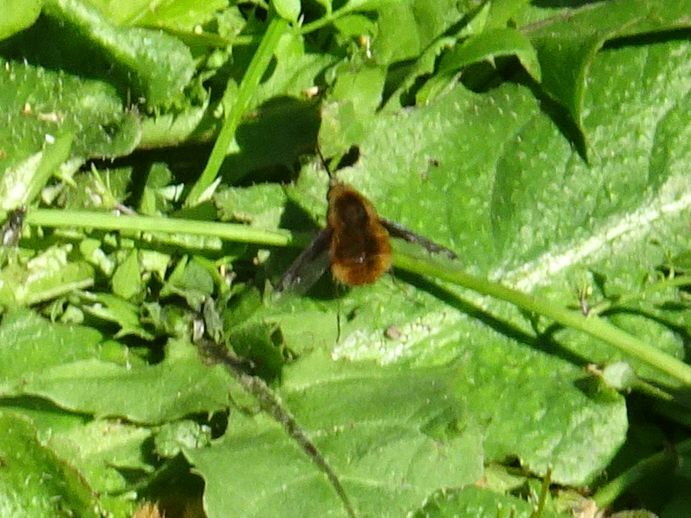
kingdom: Animalia
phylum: Arthropoda
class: Insecta
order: Diptera
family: Bombyliidae
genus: Bombylius
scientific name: Bombylius major
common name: Bee fly
